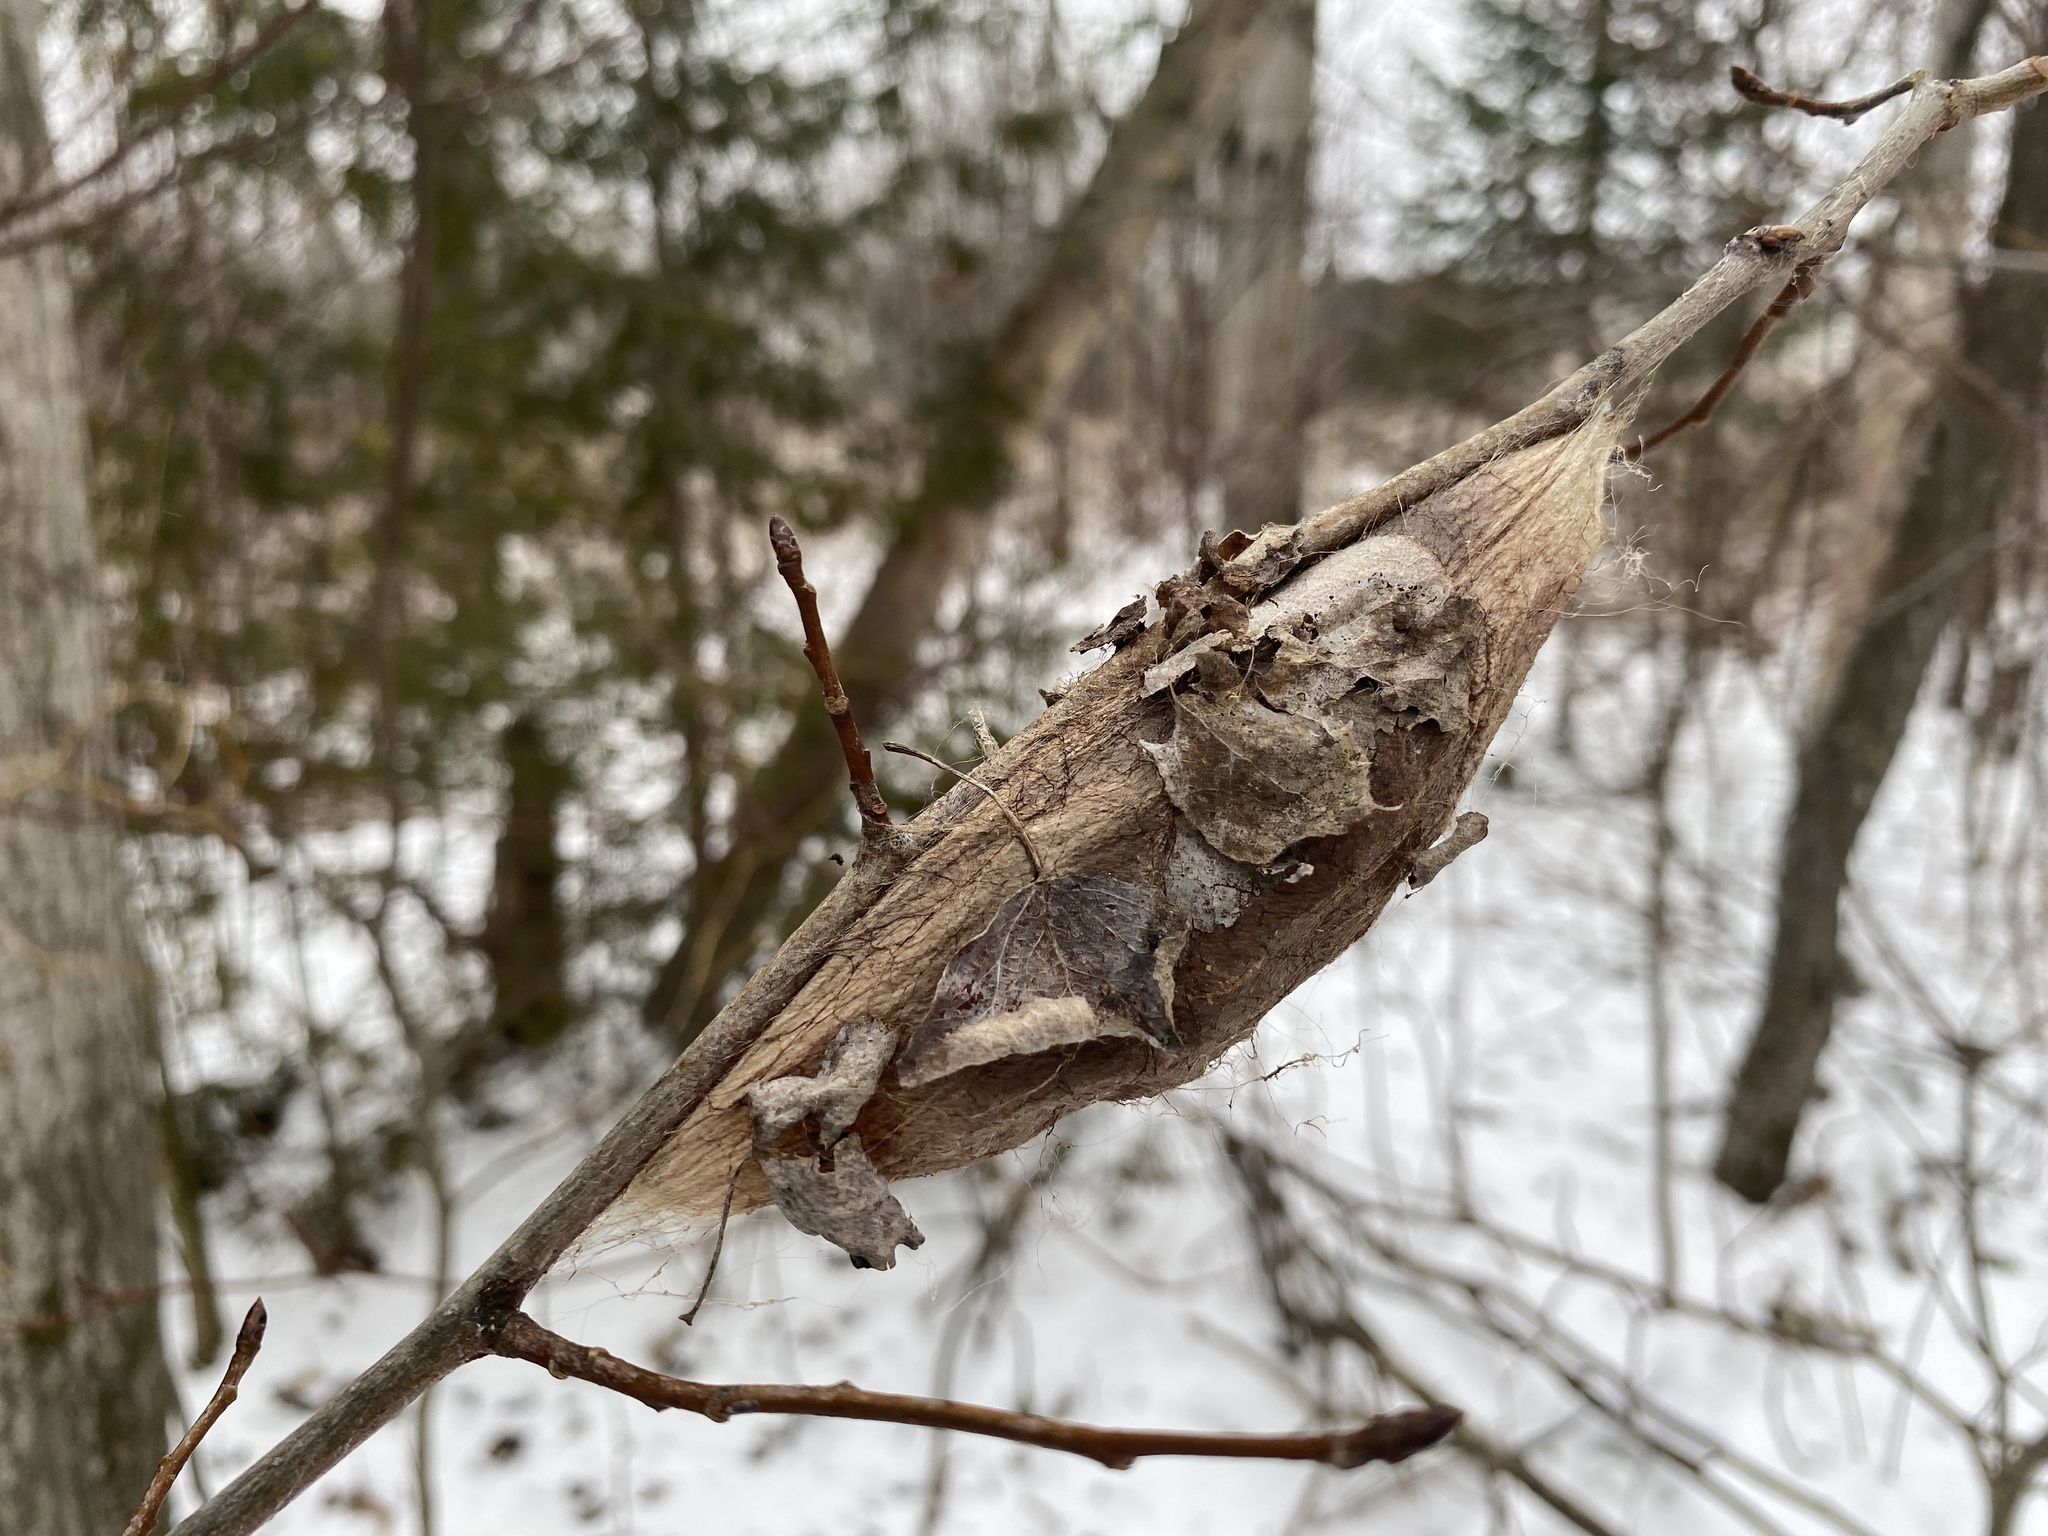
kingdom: Animalia
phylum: Arthropoda
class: Insecta
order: Lepidoptera
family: Saturniidae
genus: Hyalophora
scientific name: Hyalophora cecropia
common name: Cecropia silkmoth
